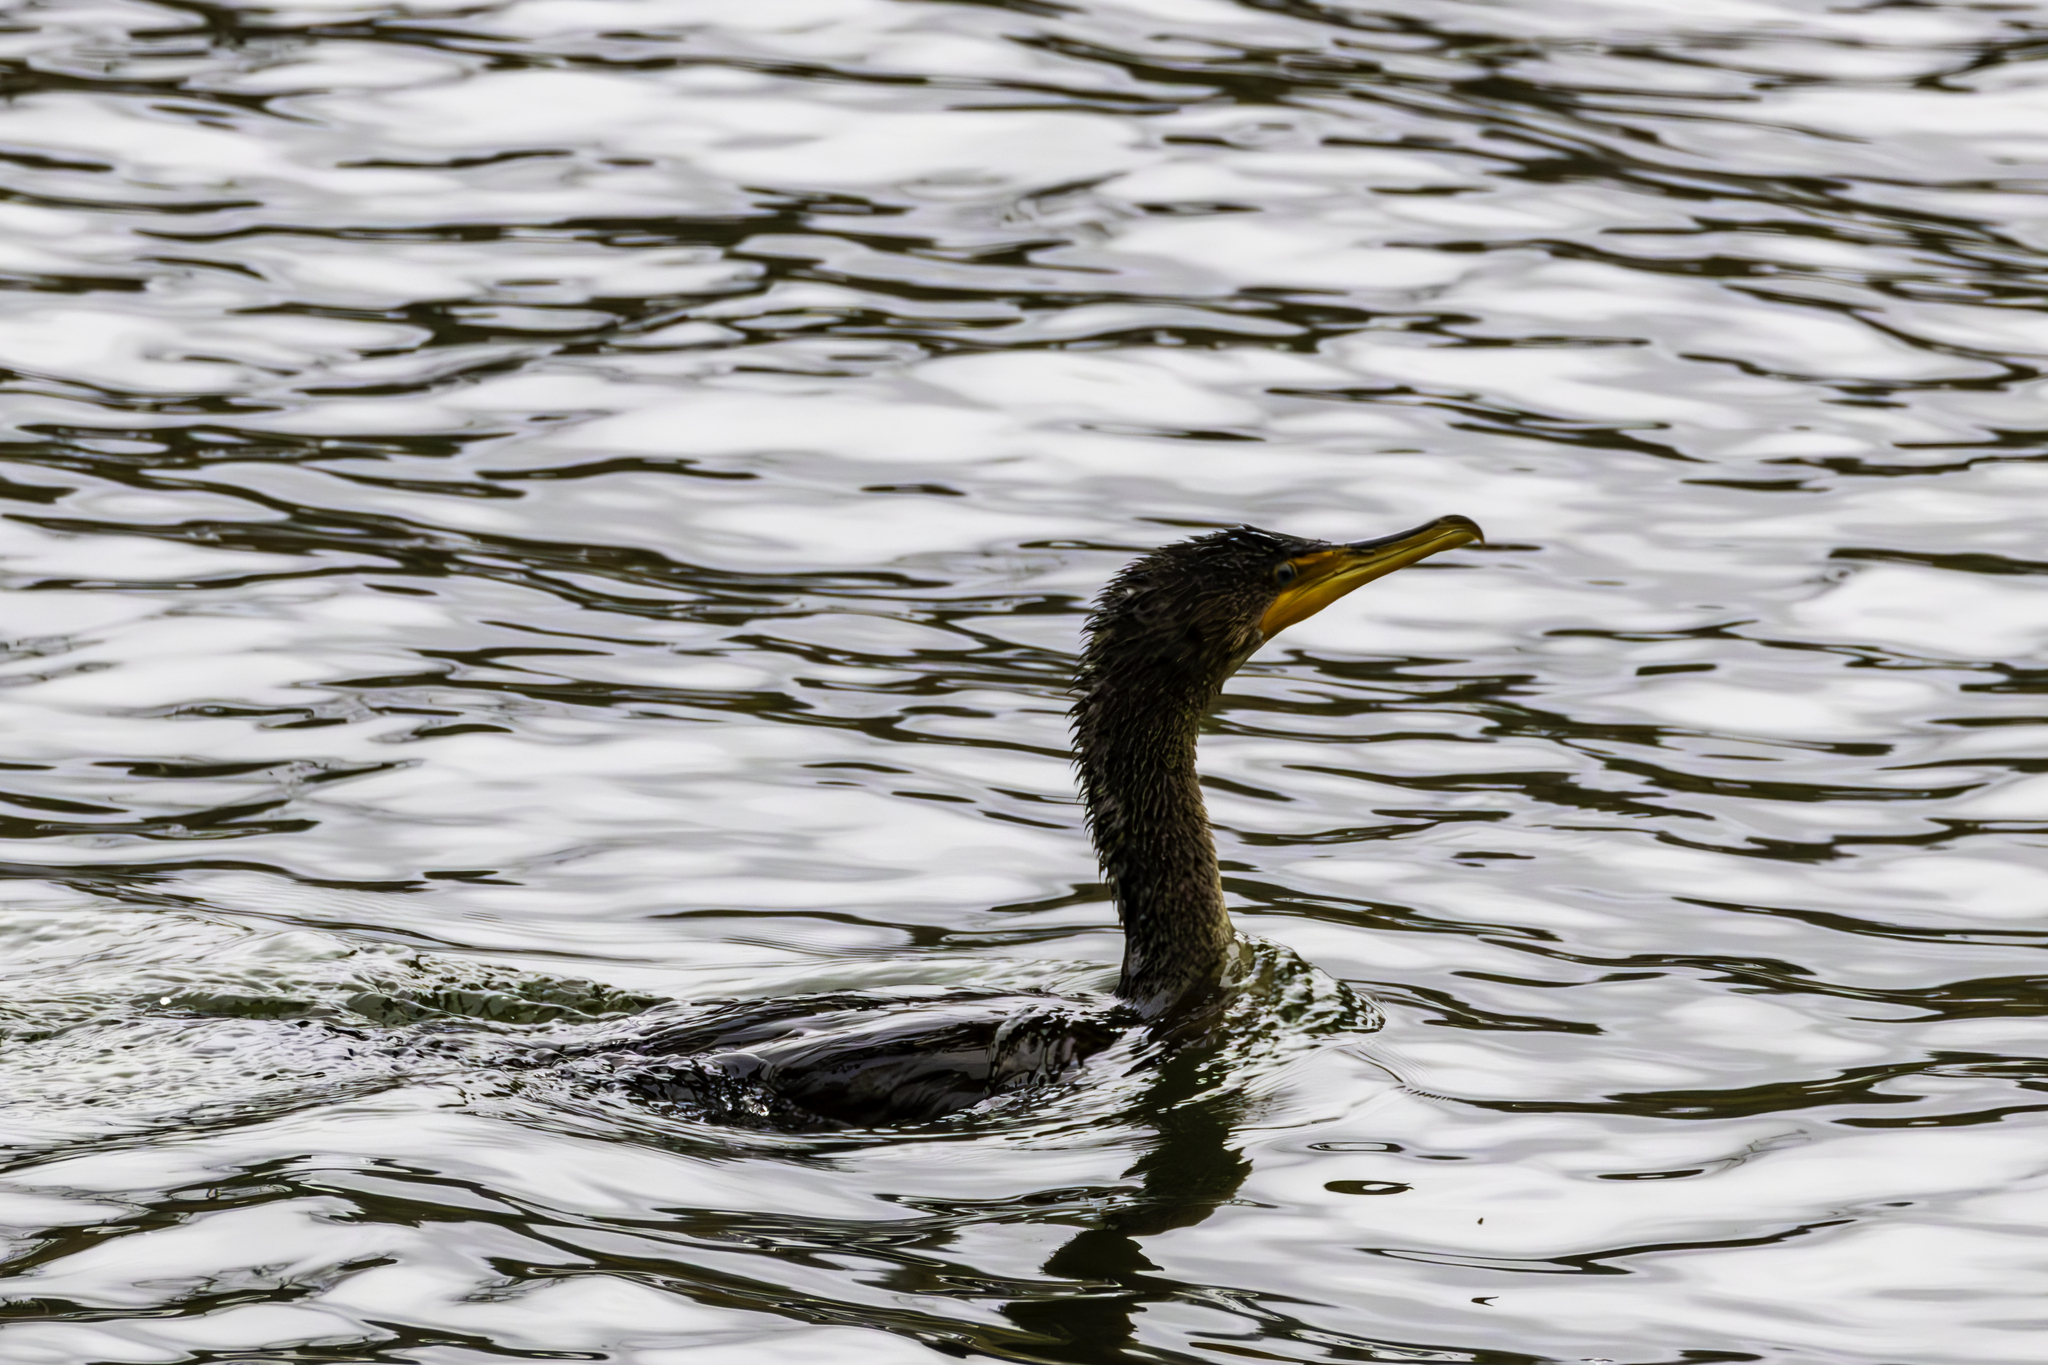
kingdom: Animalia
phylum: Chordata
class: Aves
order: Suliformes
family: Phalacrocoracidae
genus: Phalacrocorax
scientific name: Phalacrocorax auritus
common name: Double-crested cormorant
